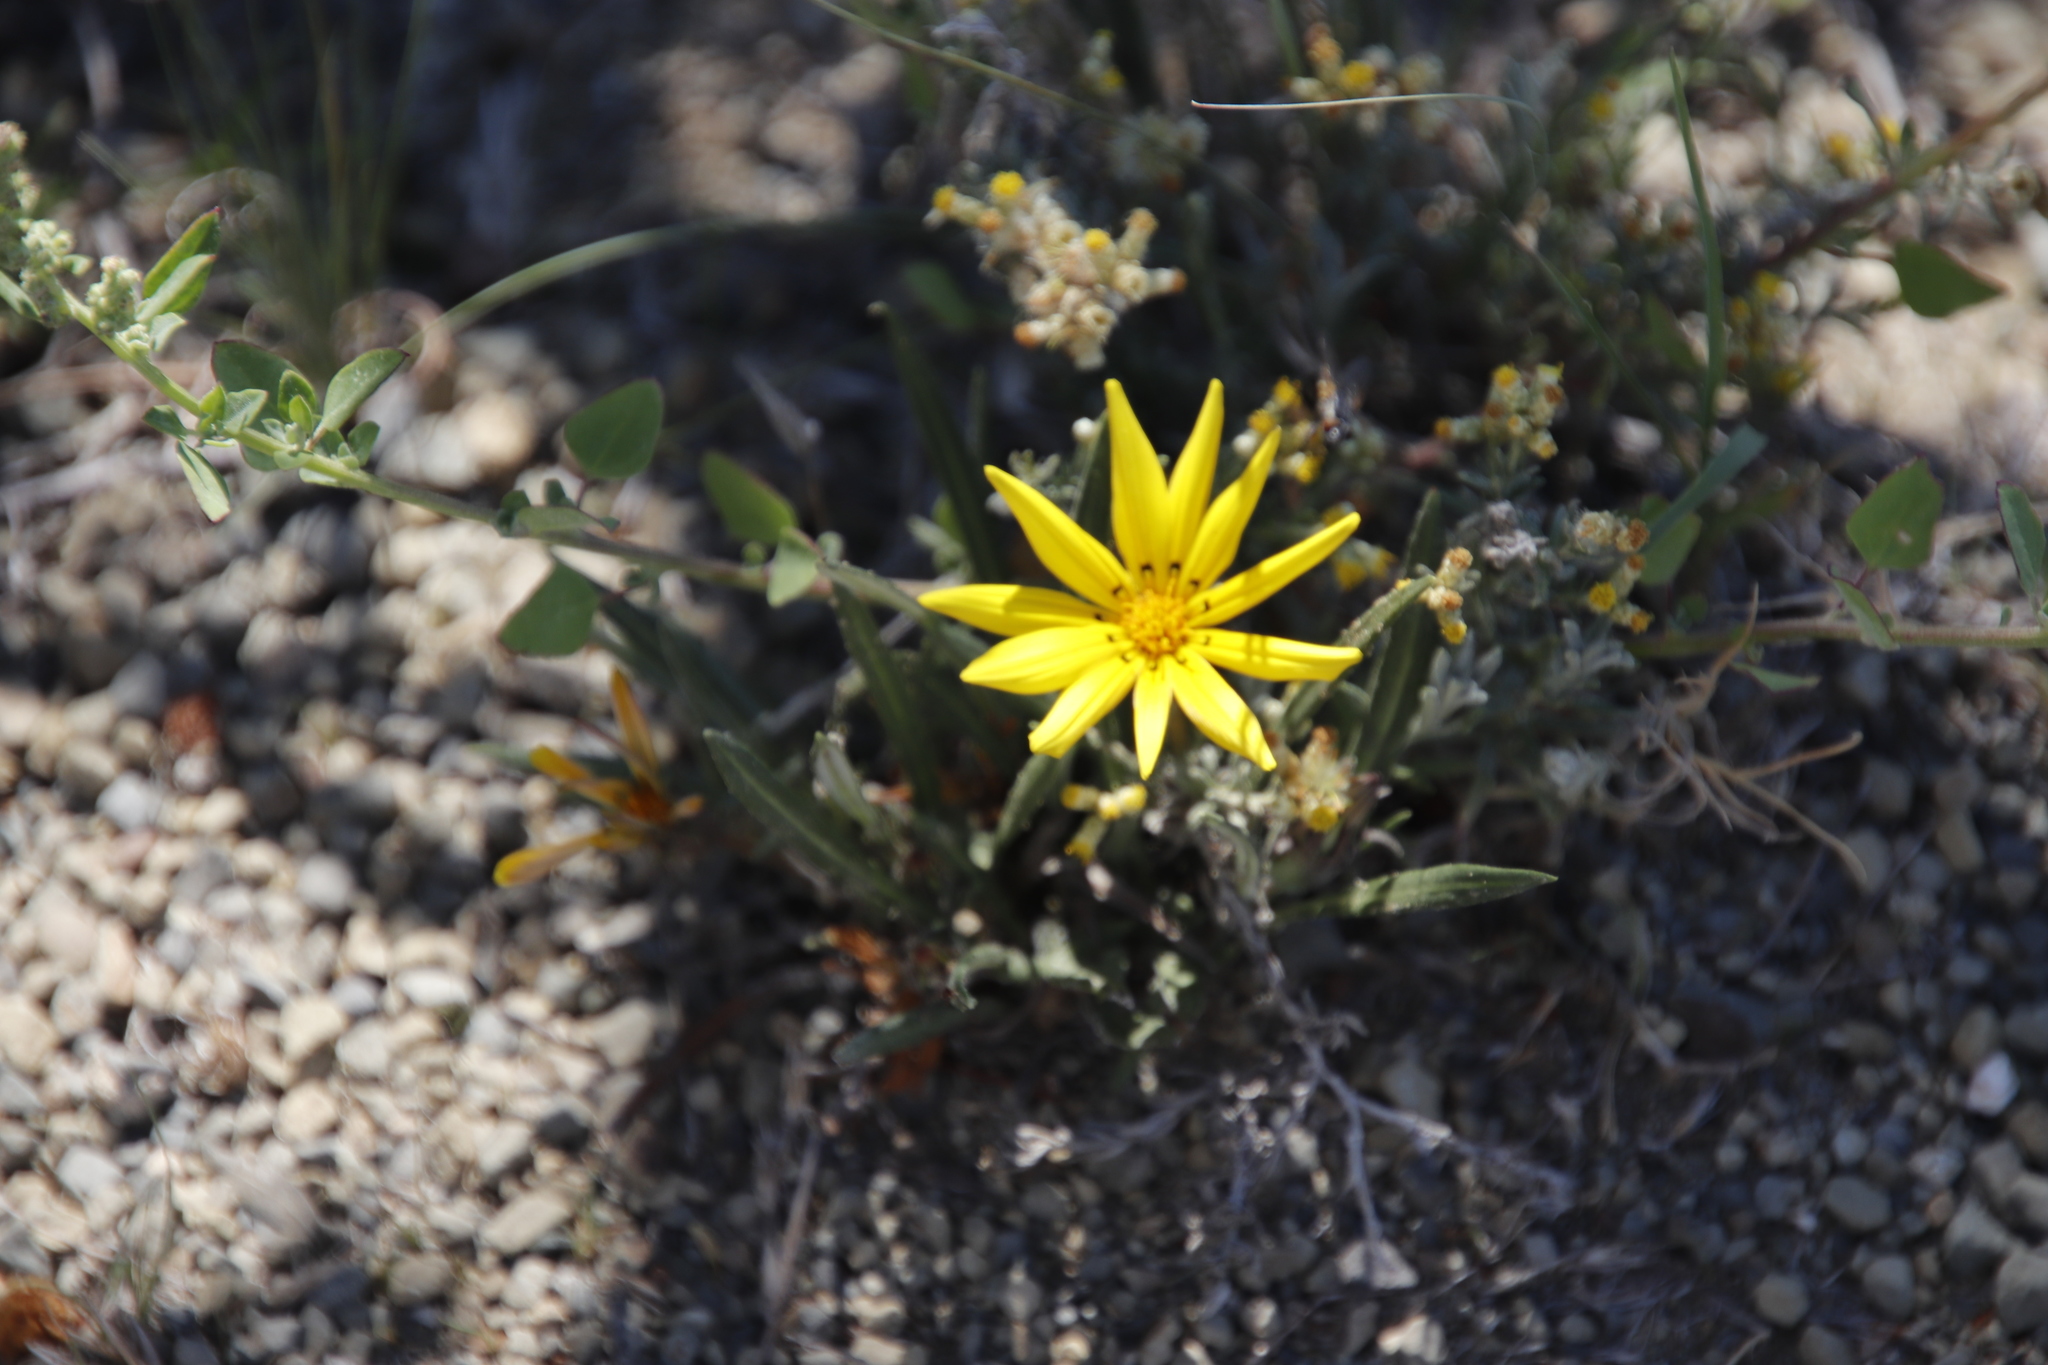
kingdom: Plantae
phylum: Tracheophyta
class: Magnoliopsida
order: Asterales
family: Asteraceae
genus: Gazania
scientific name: Gazania krebsiana
